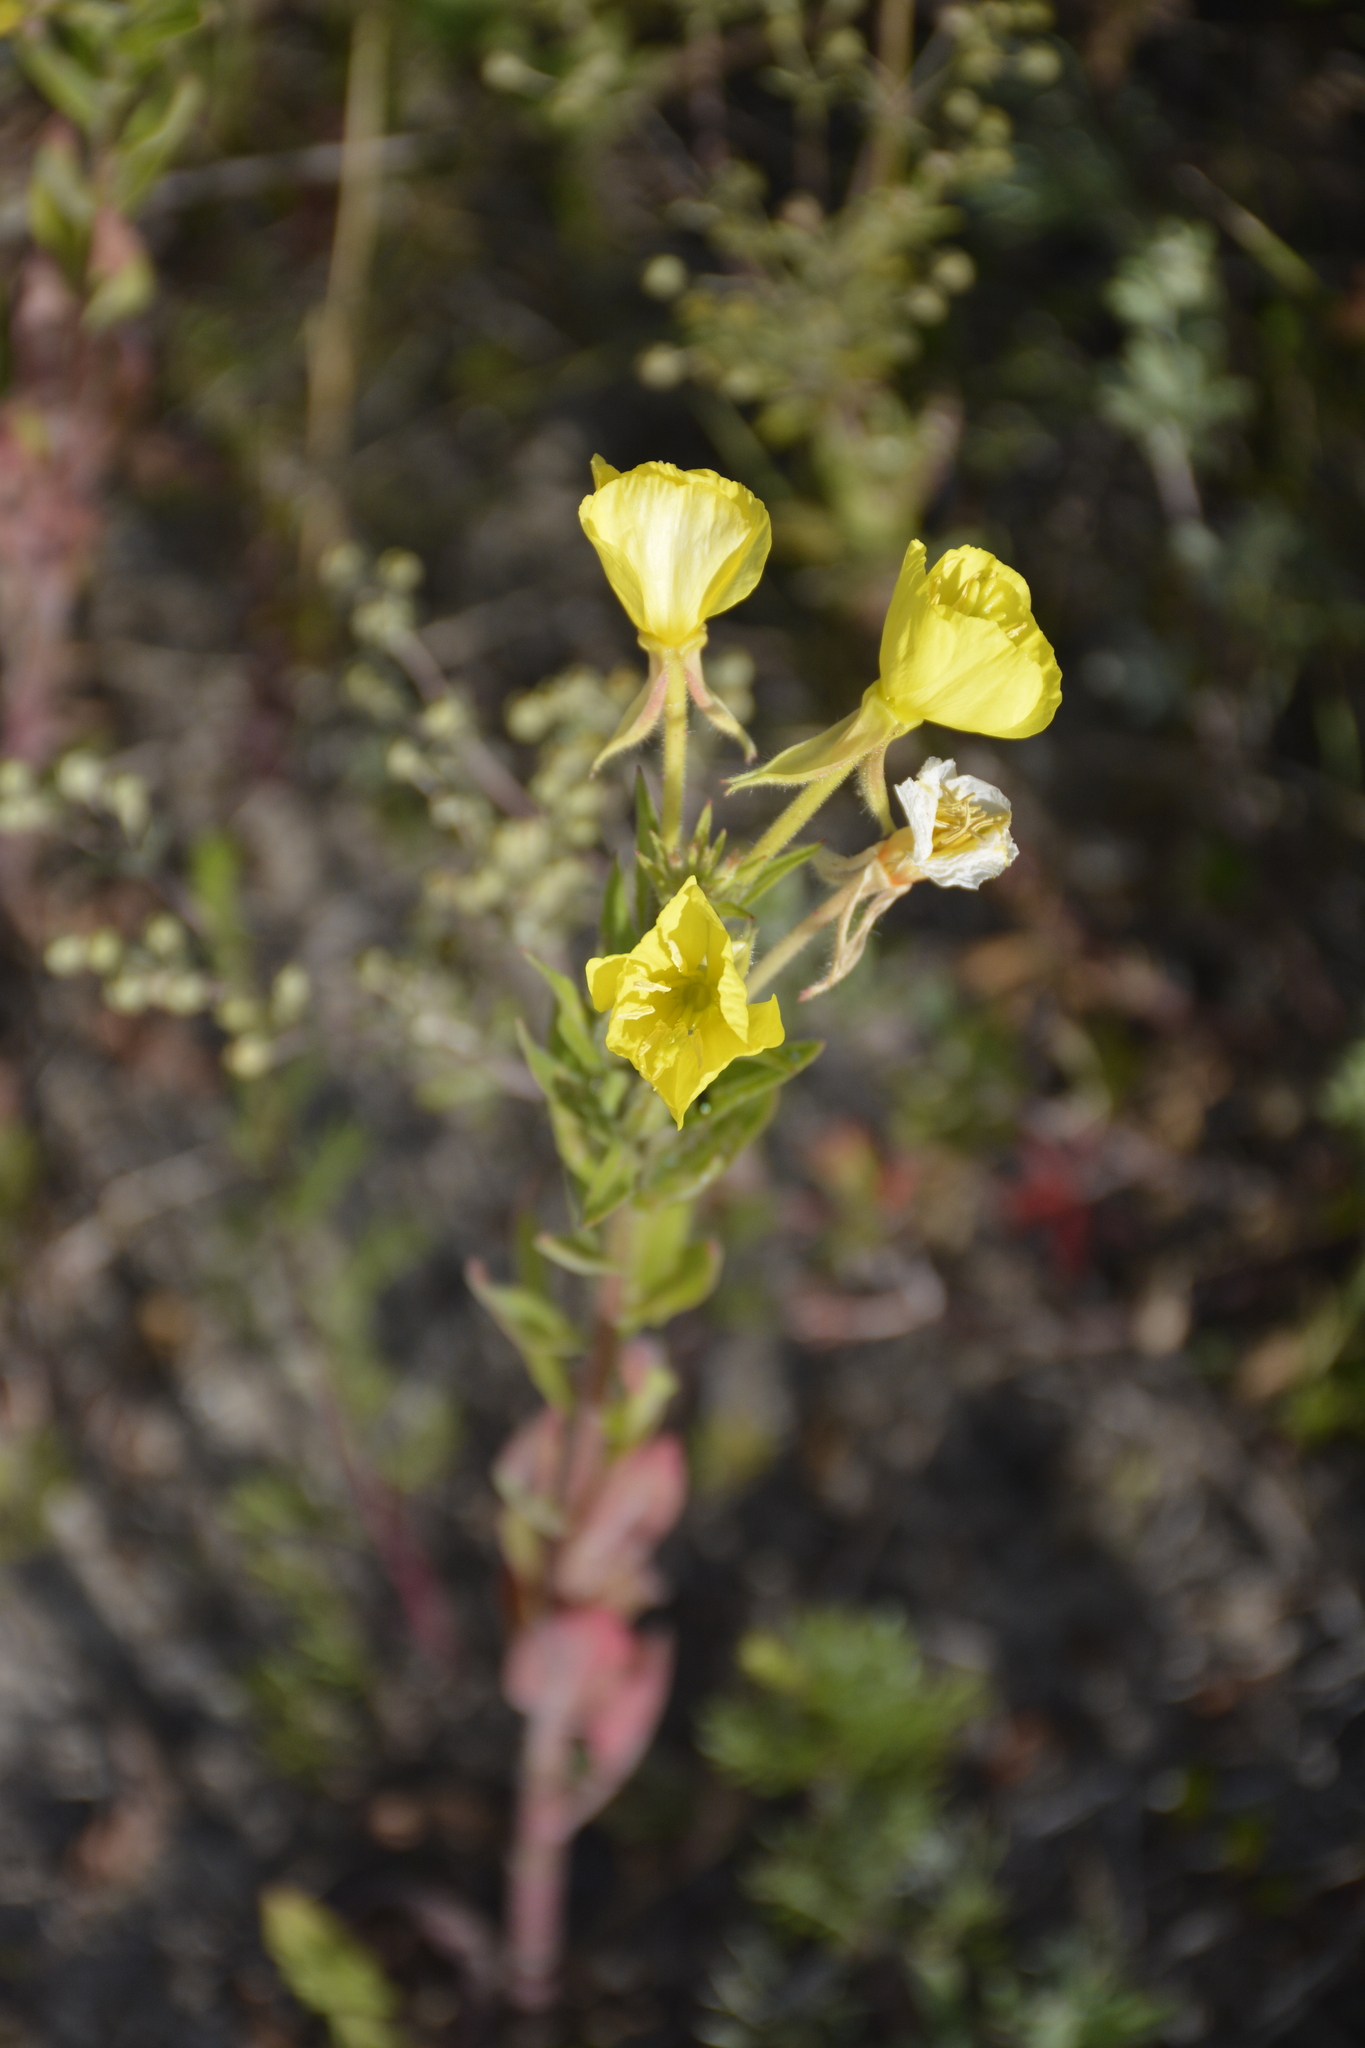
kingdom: Plantae
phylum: Tracheophyta
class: Magnoliopsida
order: Myrtales
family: Onagraceae
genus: Oenothera
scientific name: Oenothera rubricaulis
